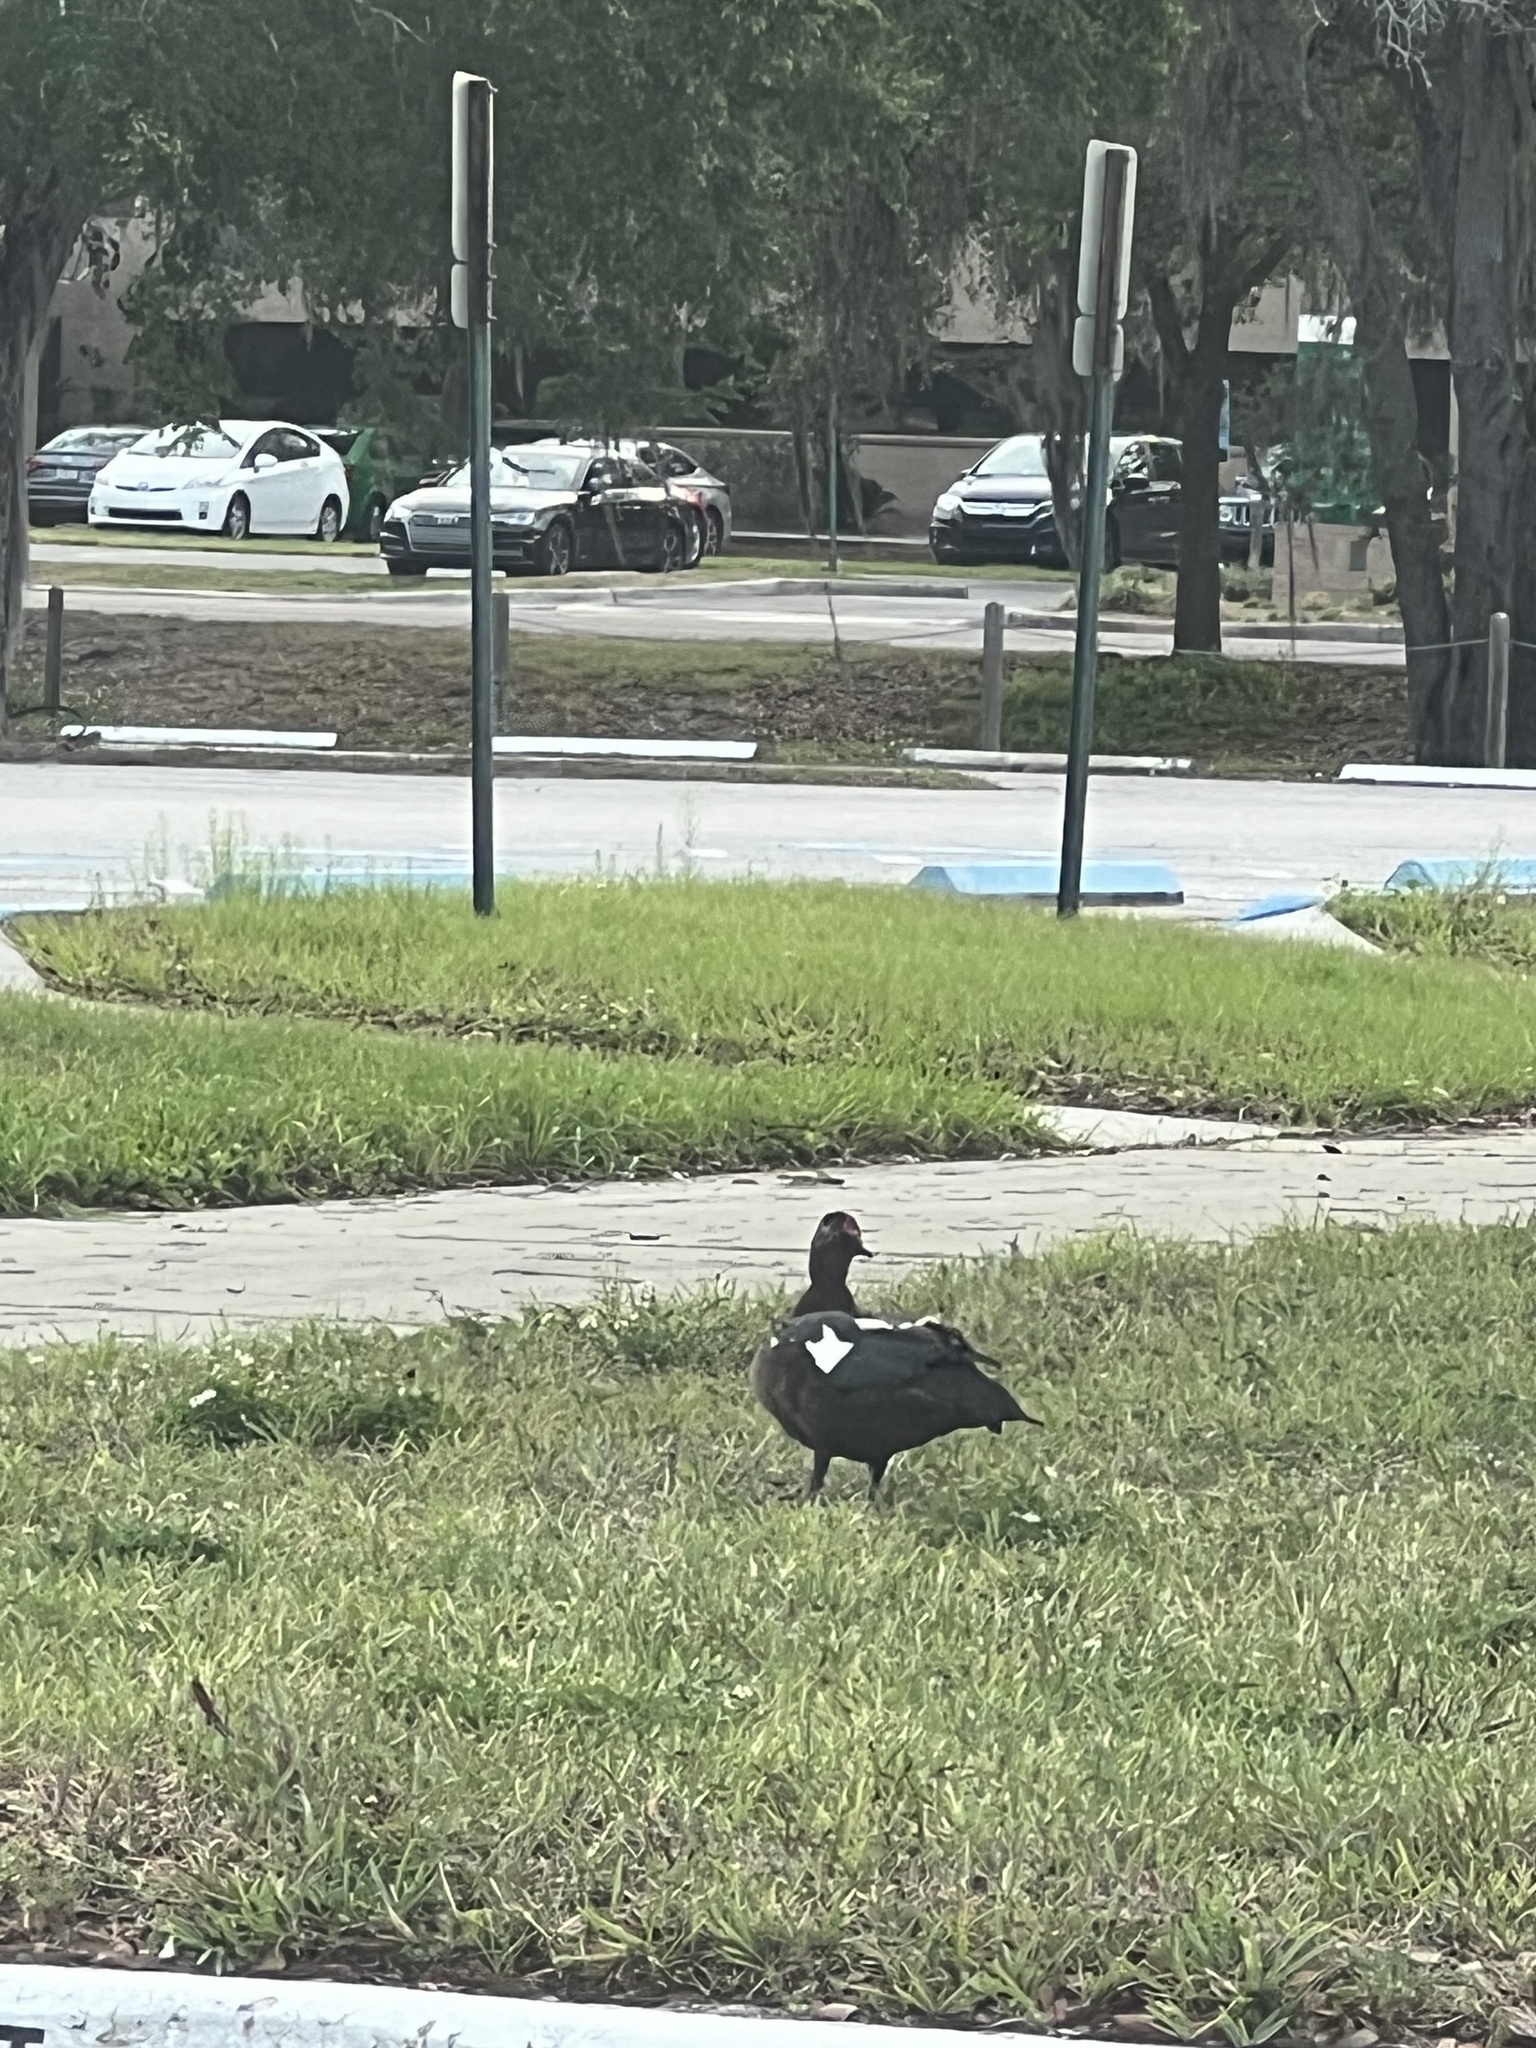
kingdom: Animalia
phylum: Chordata
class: Aves
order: Anseriformes
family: Anatidae
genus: Cairina
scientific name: Cairina moschata
